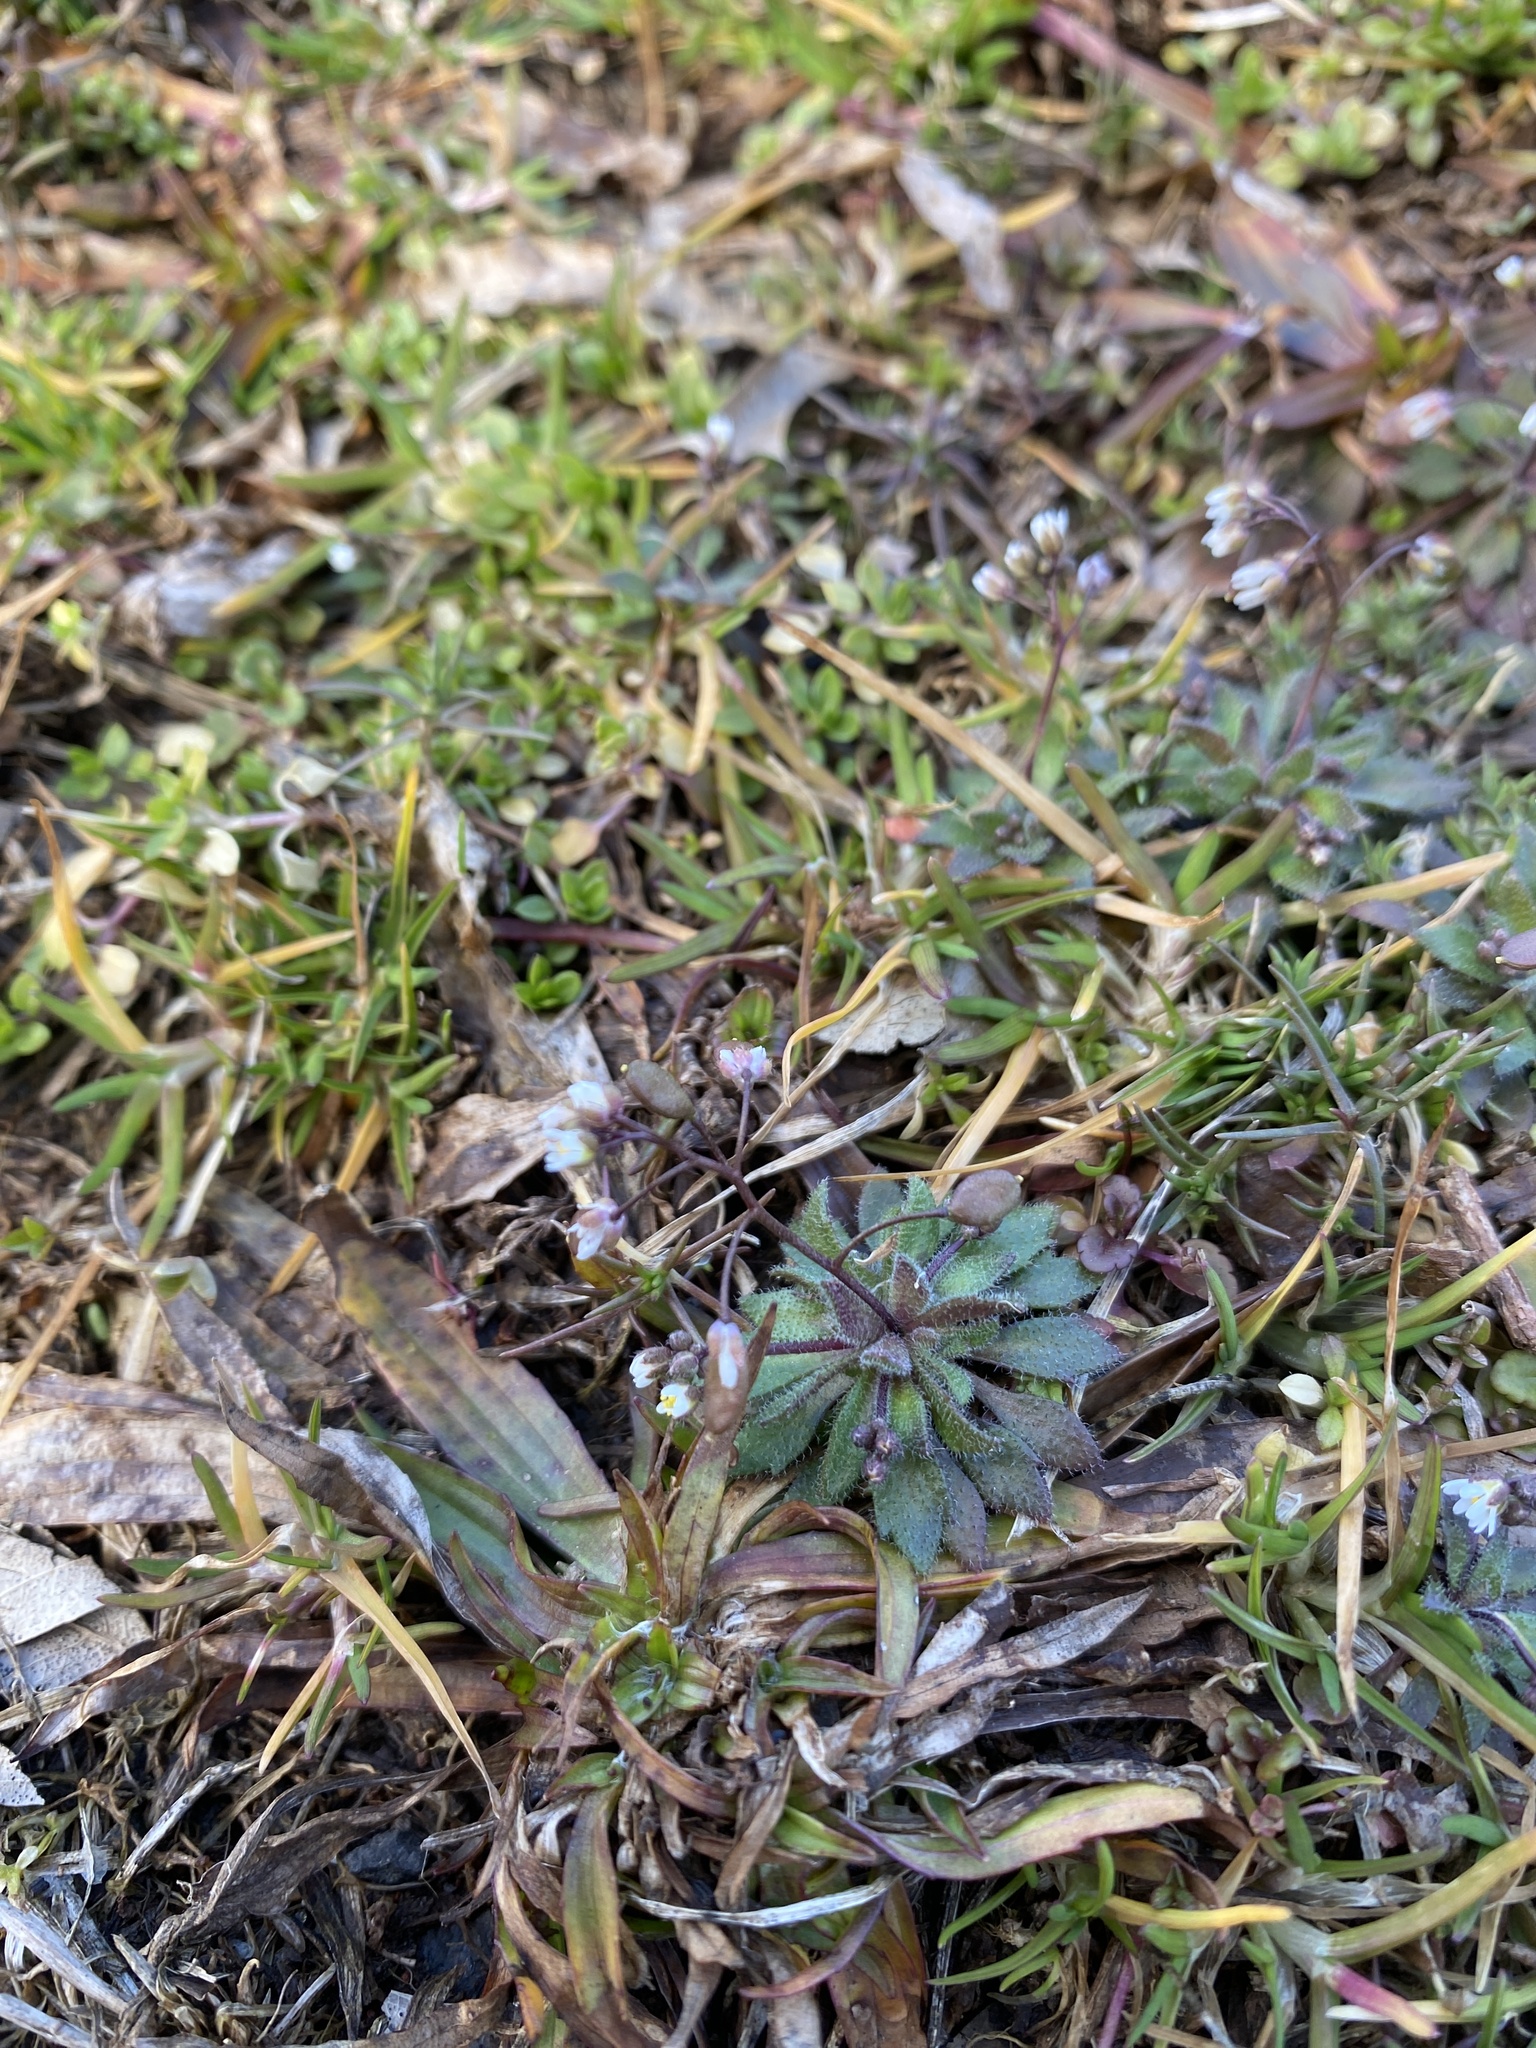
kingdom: Plantae
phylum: Tracheophyta
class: Magnoliopsida
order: Brassicales
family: Brassicaceae
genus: Draba
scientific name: Draba verna
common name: Spring draba
